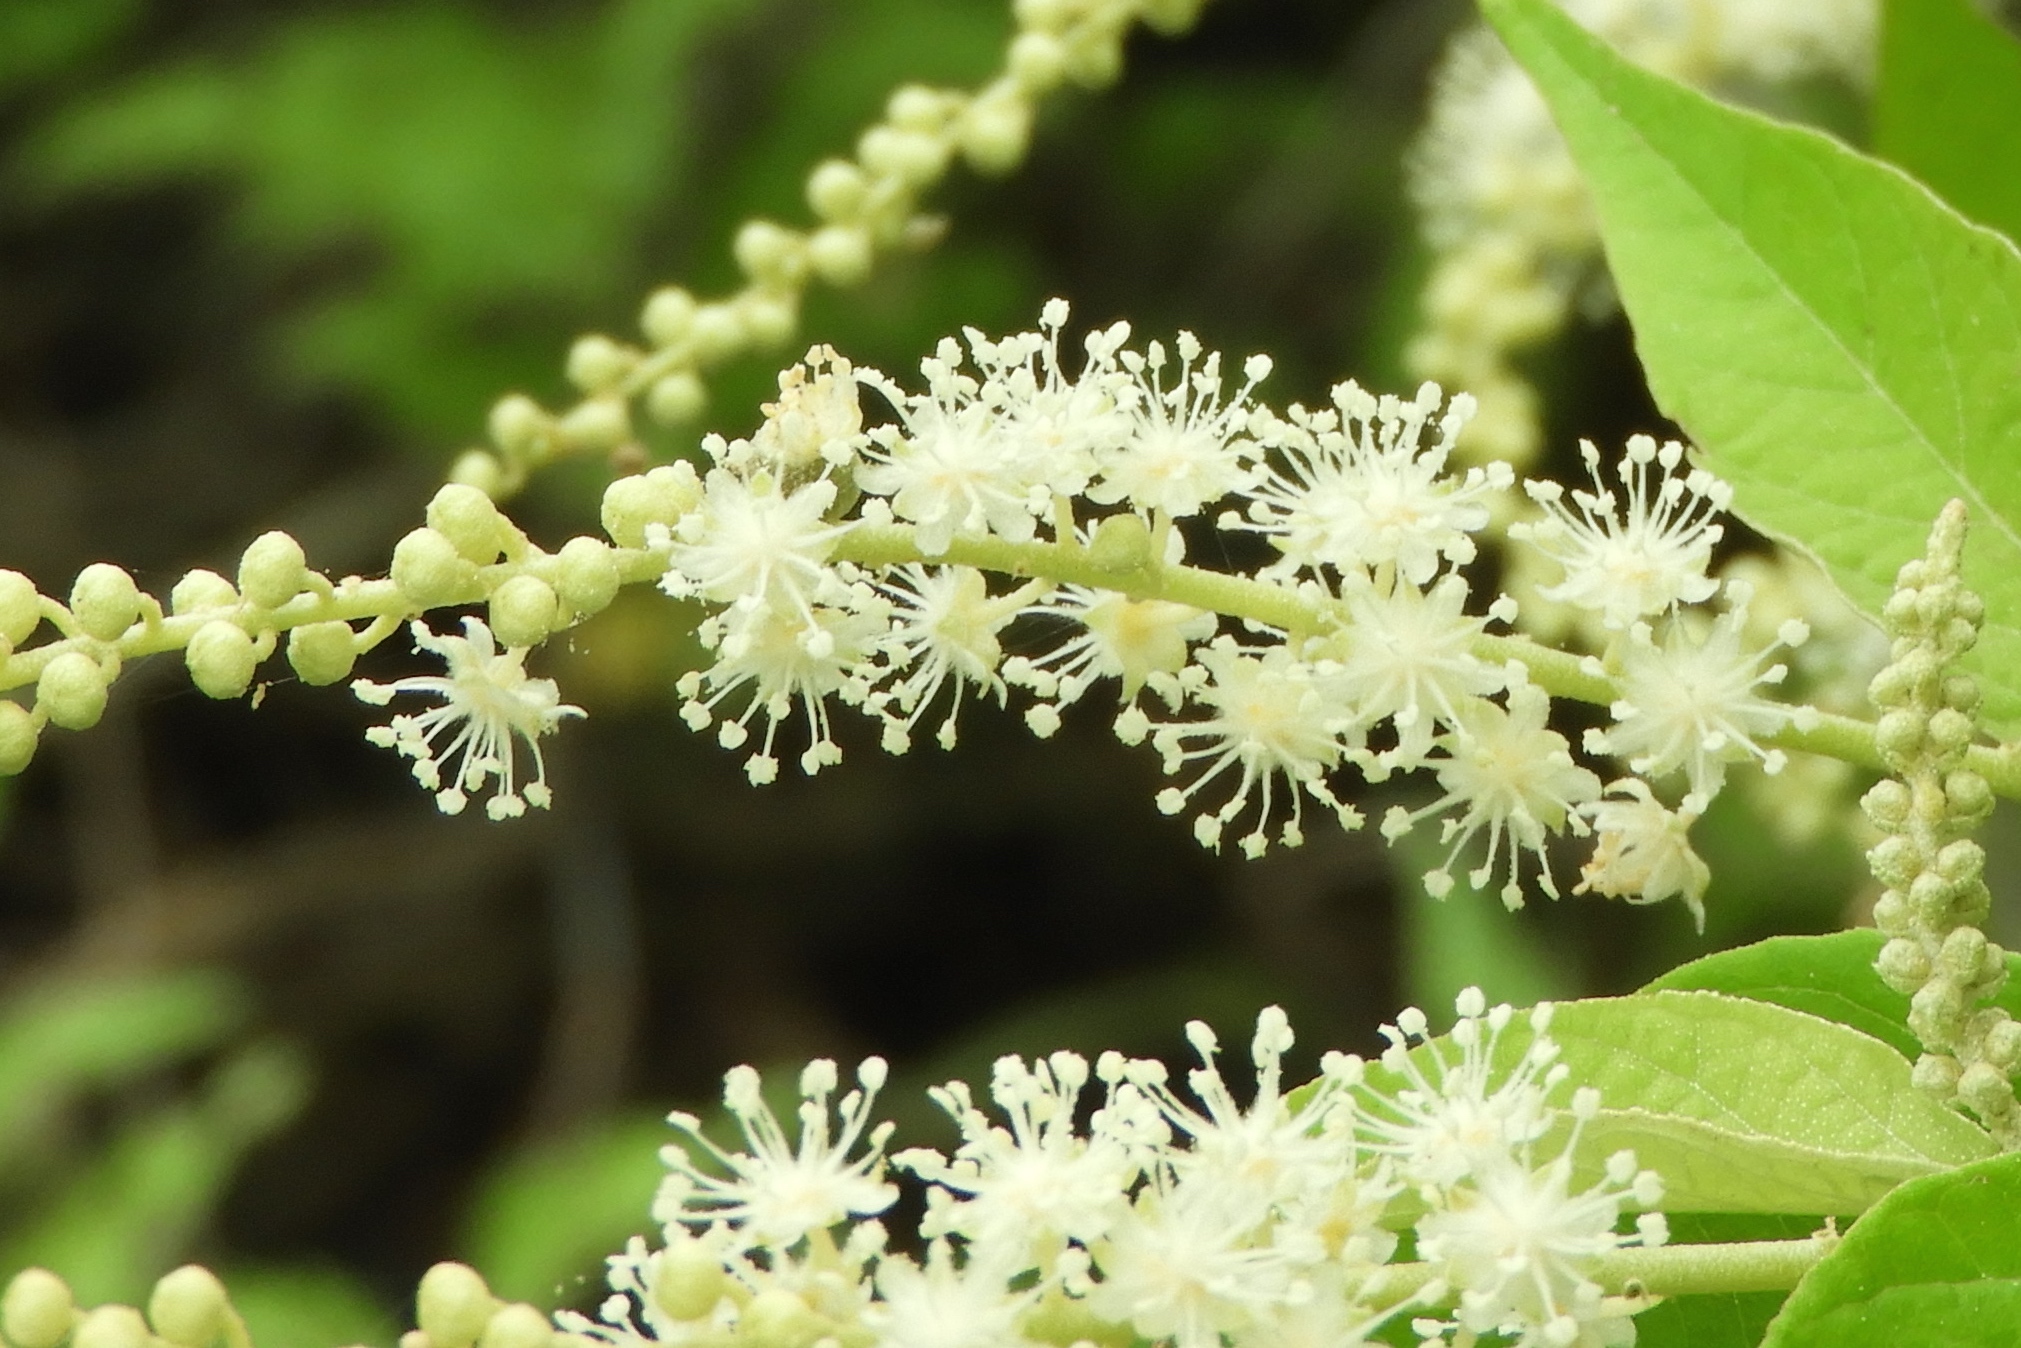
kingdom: Plantae
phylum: Tracheophyta
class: Magnoliopsida
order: Malpighiales
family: Euphorbiaceae
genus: Croton
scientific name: Croton culiacanensis
